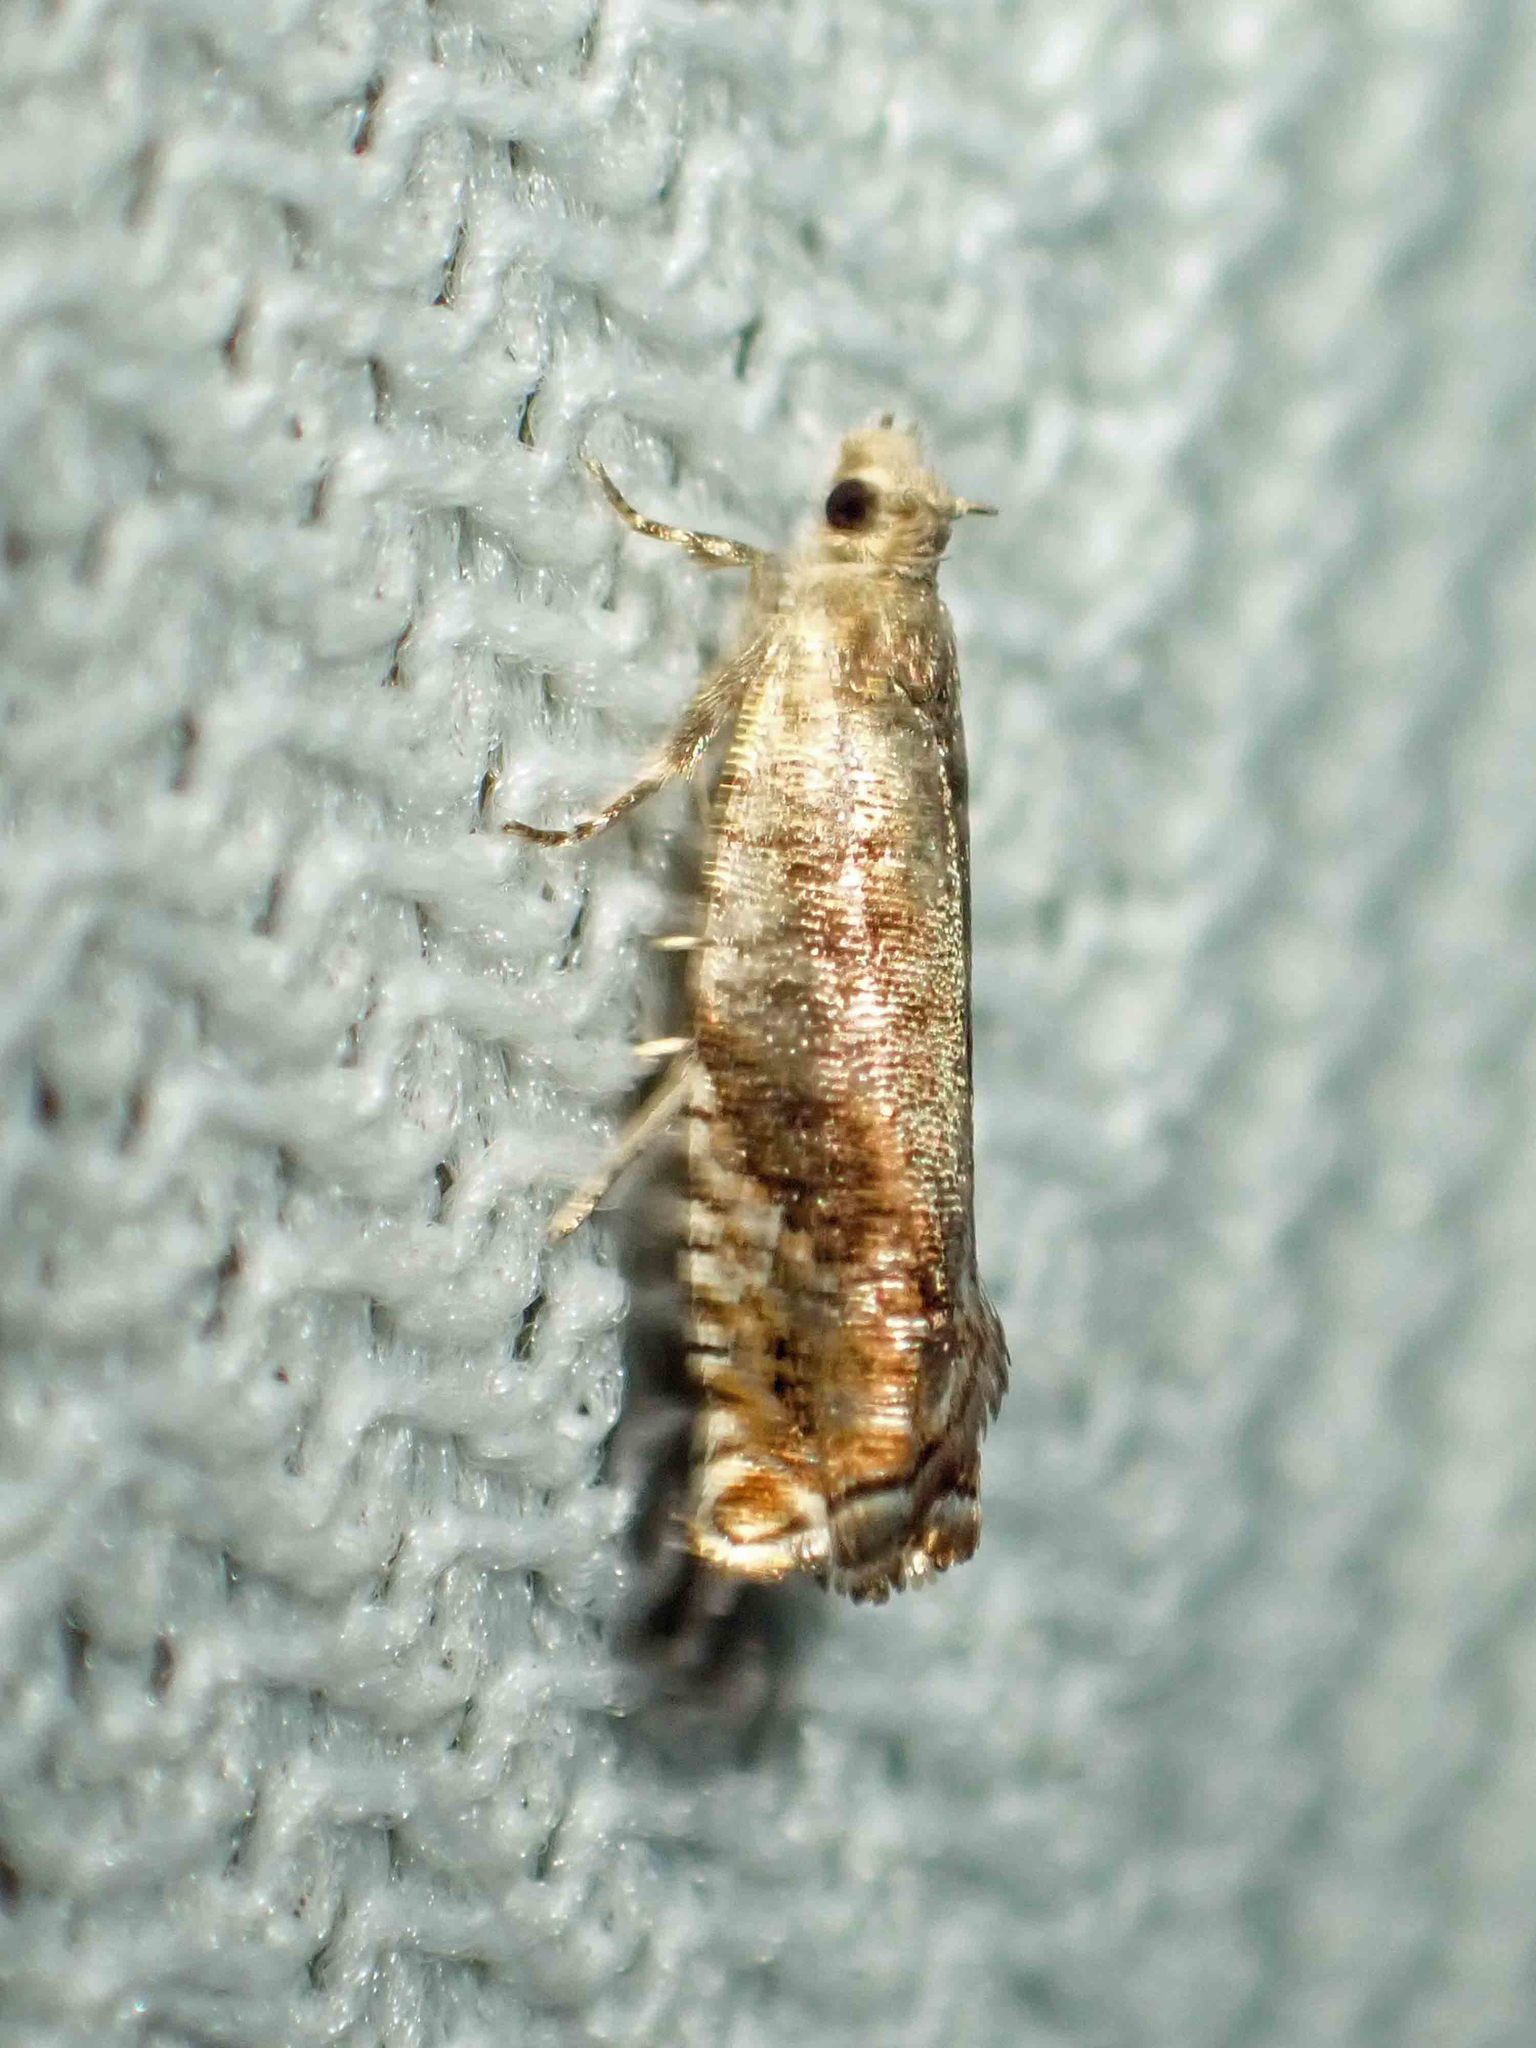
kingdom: Animalia
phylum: Arthropoda
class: Insecta
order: Lepidoptera
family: Tortricidae
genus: Epinotia
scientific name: Epinotia solicitana
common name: Birch shoot borer moth
